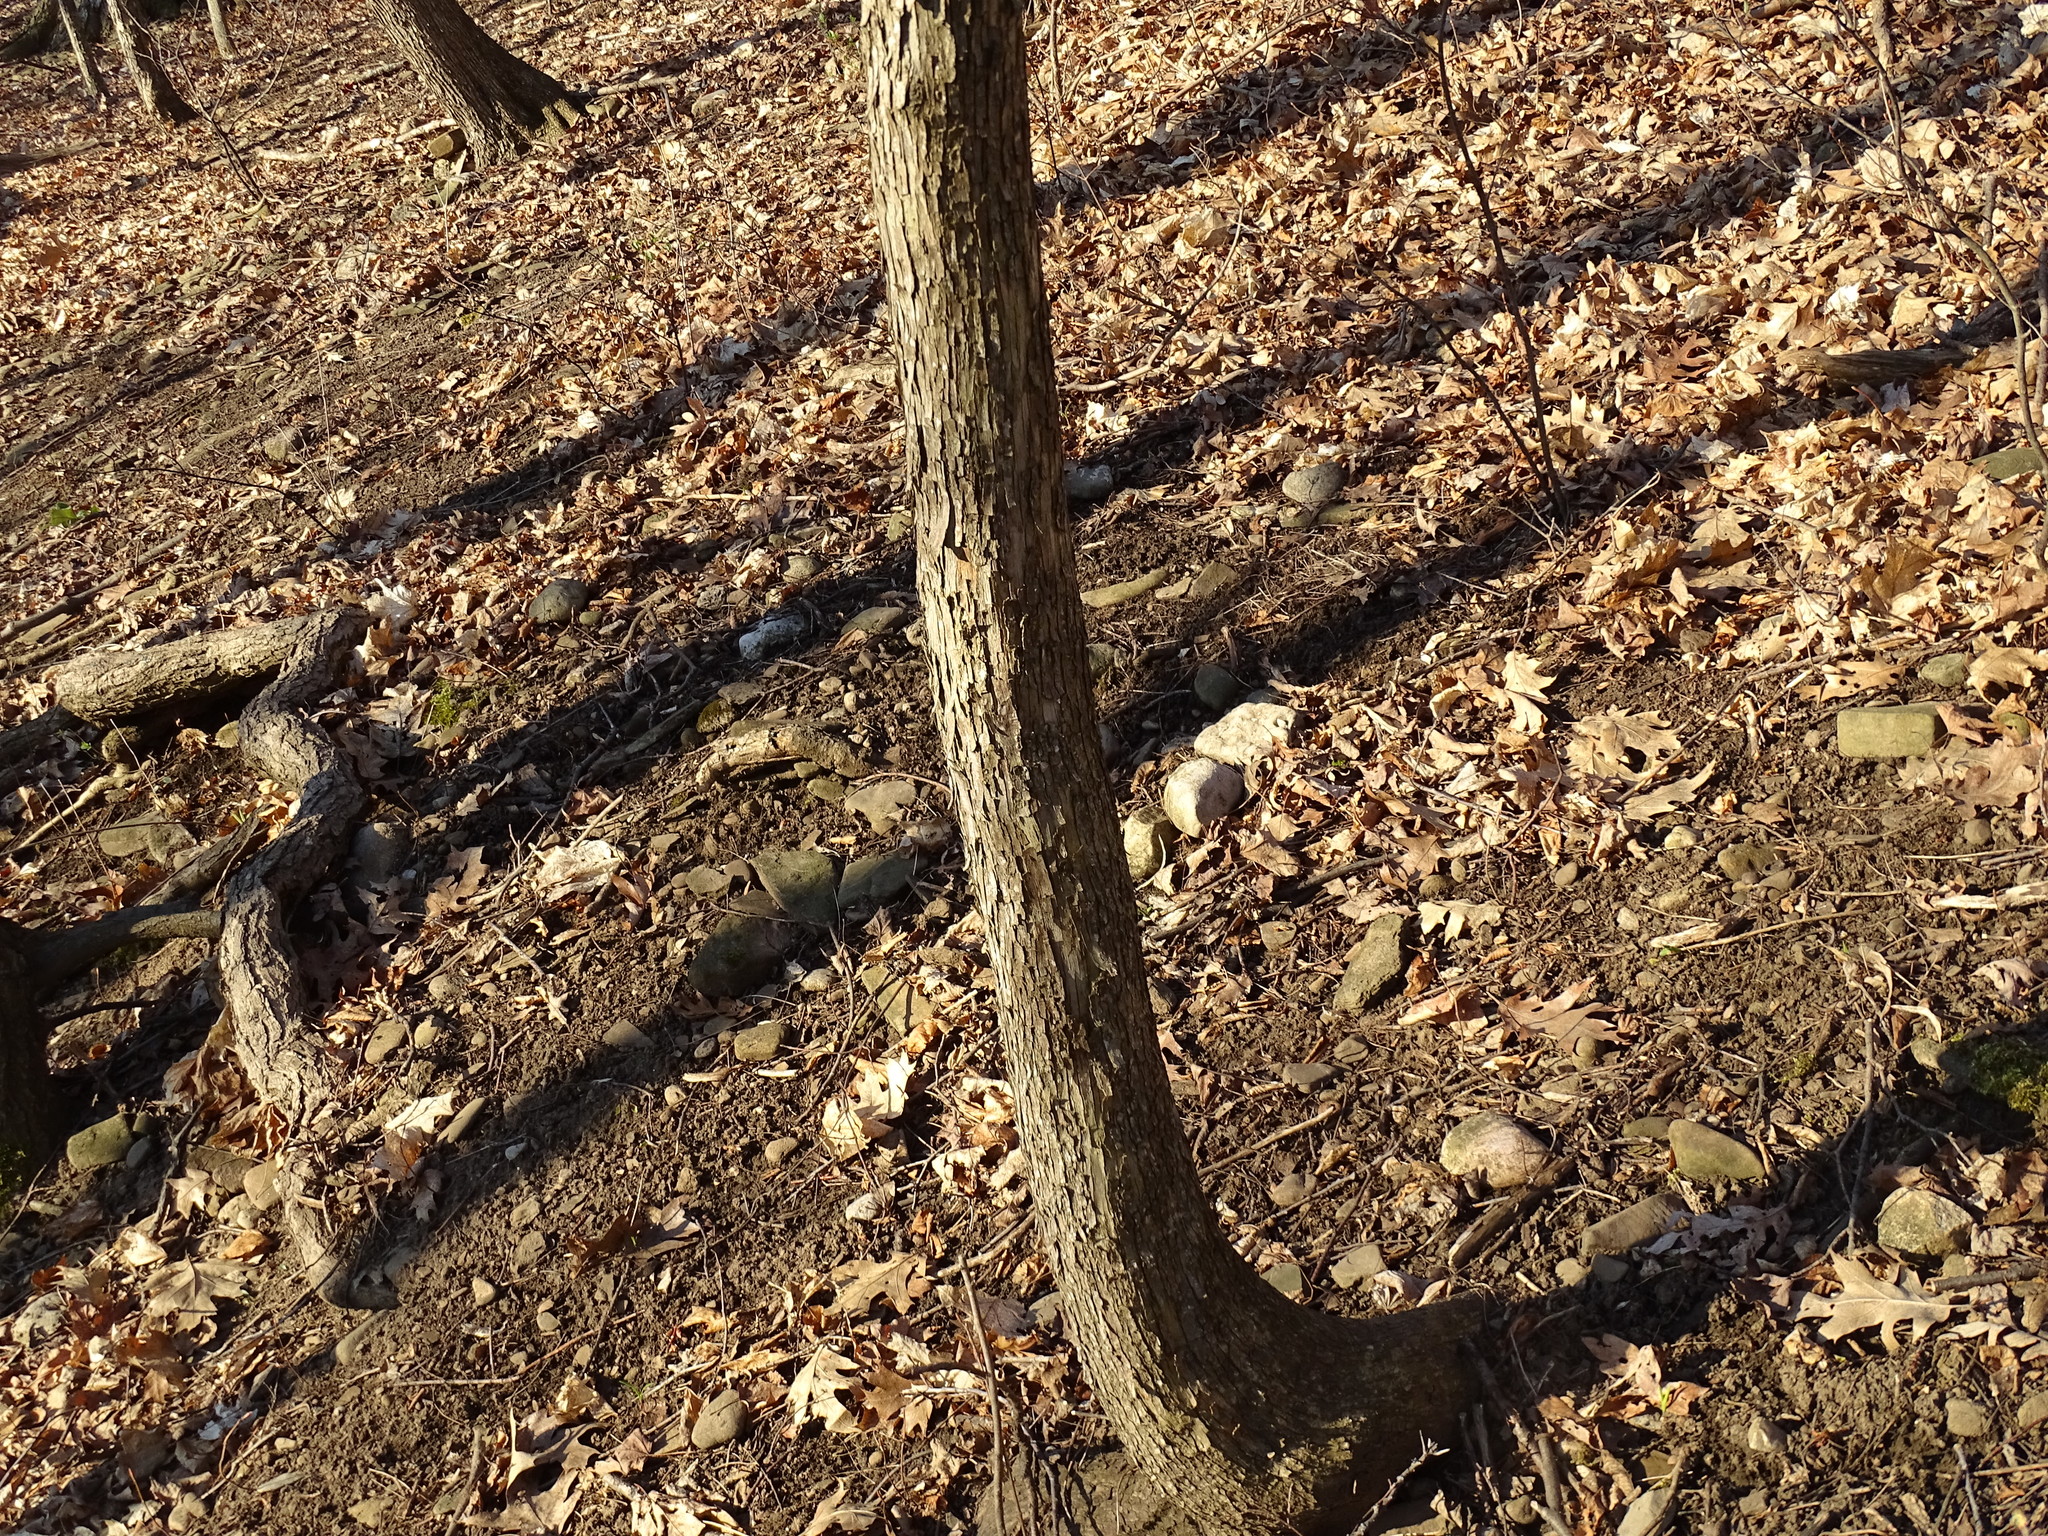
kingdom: Plantae
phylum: Tracheophyta
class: Magnoliopsida
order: Fagales
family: Betulaceae
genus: Ostrya
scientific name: Ostrya virginiana
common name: Ironwood
